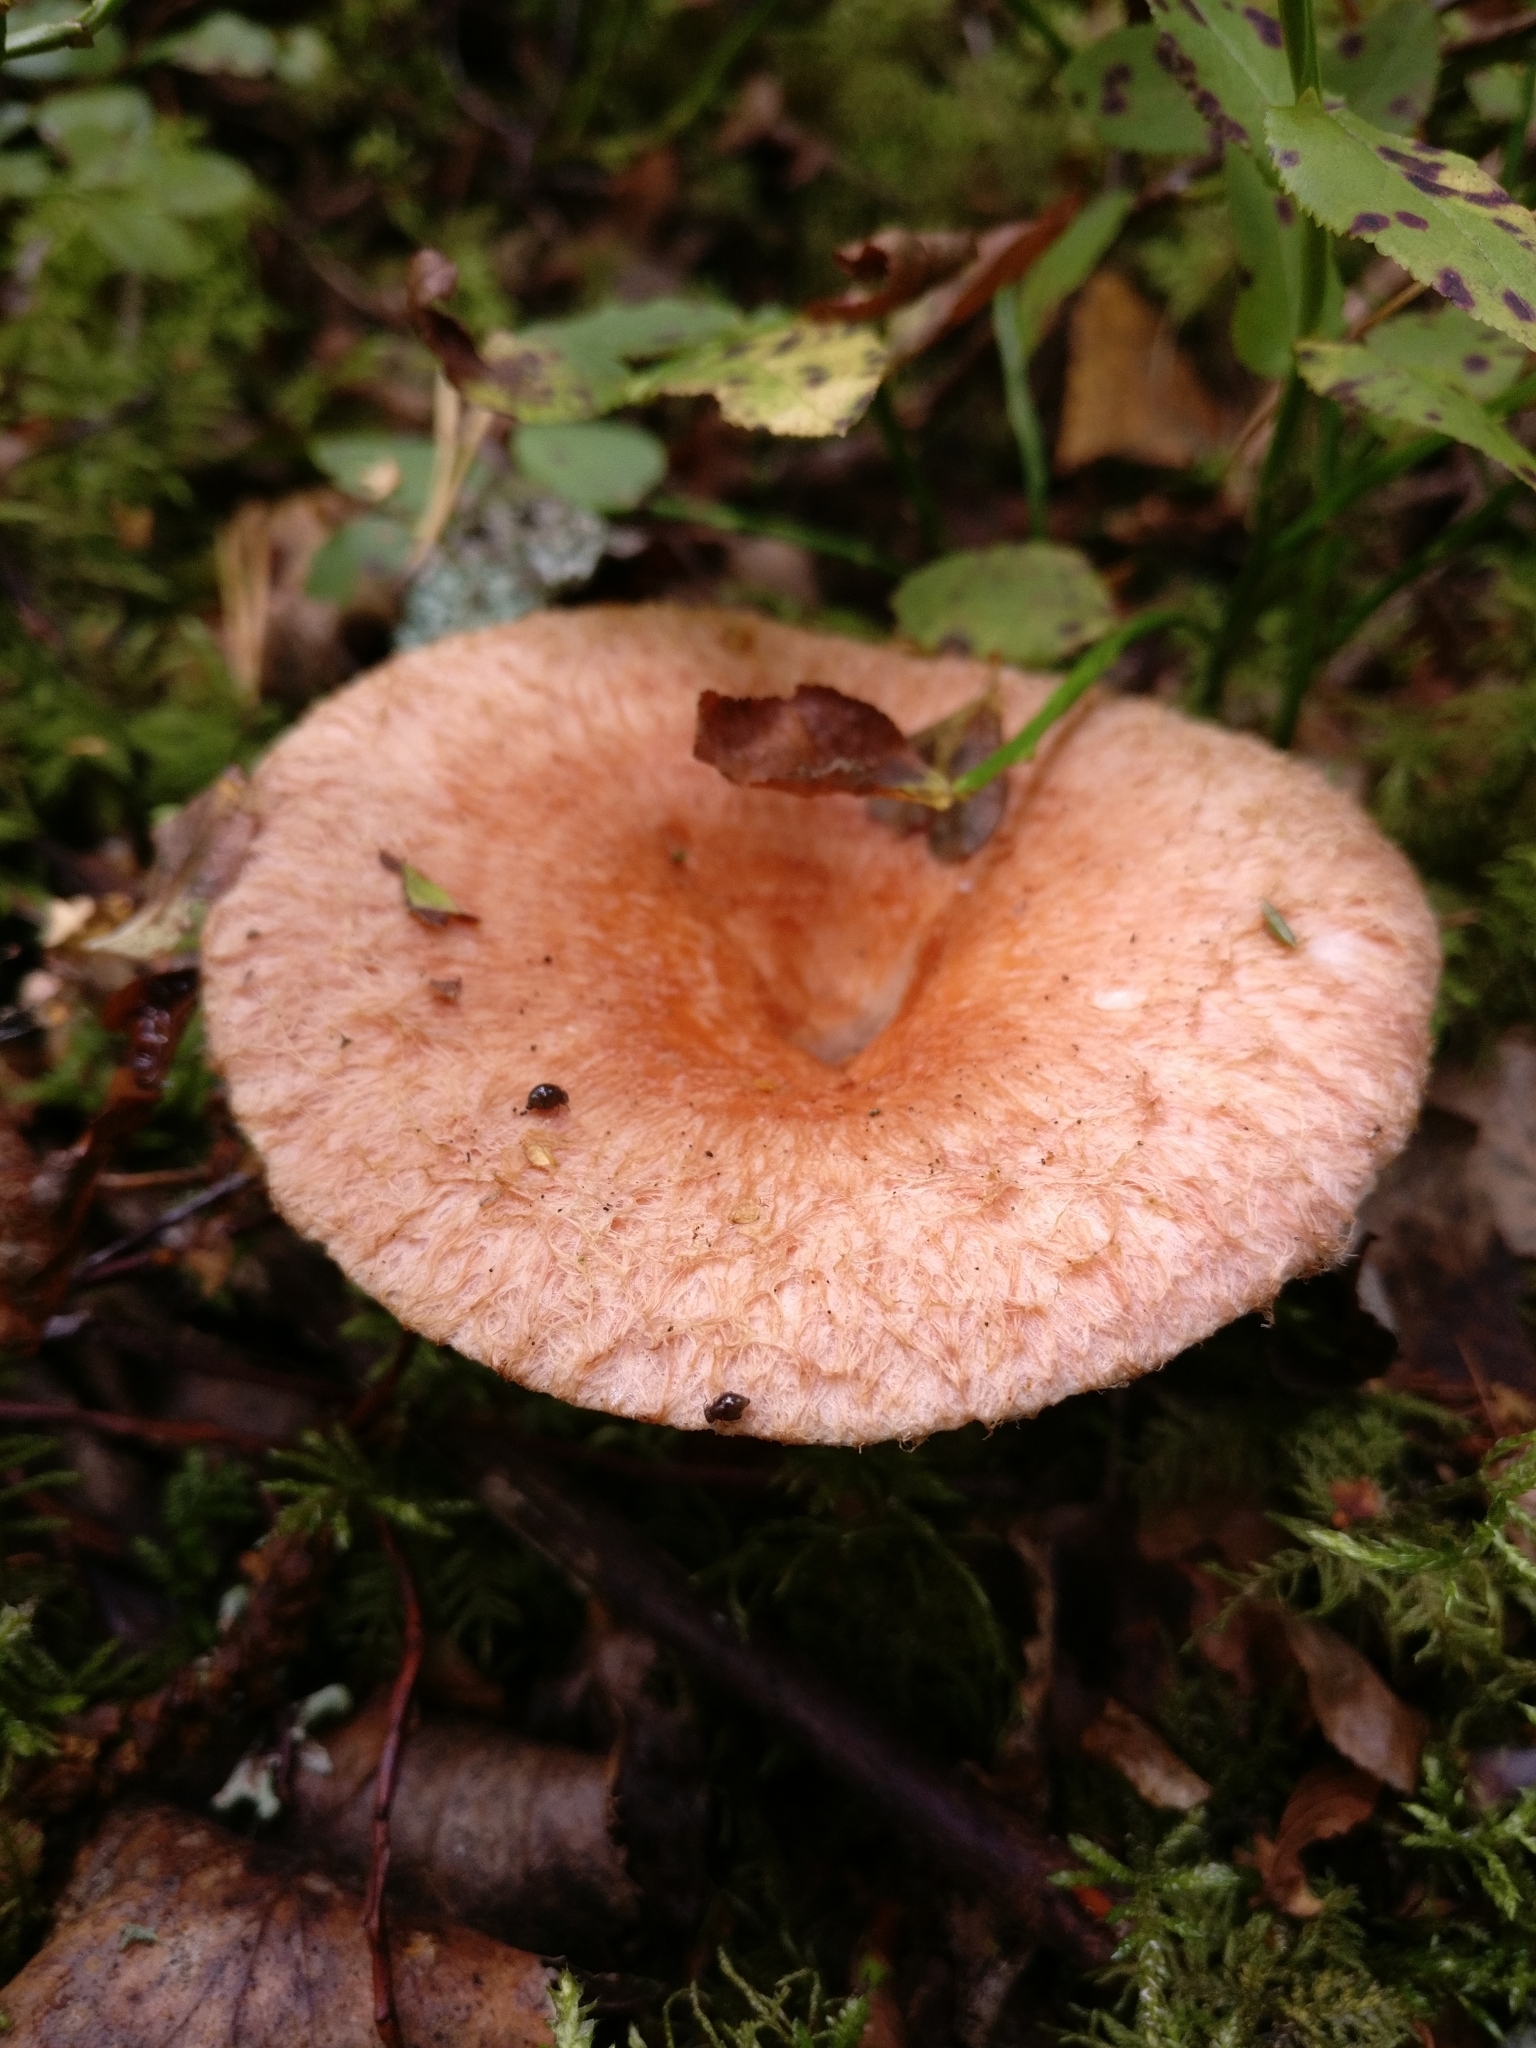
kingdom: Fungi
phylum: Basidiomycota
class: Agaricomycetes
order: Russulales
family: Russulaceae
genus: Lactarius
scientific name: Lactarius torminosus
